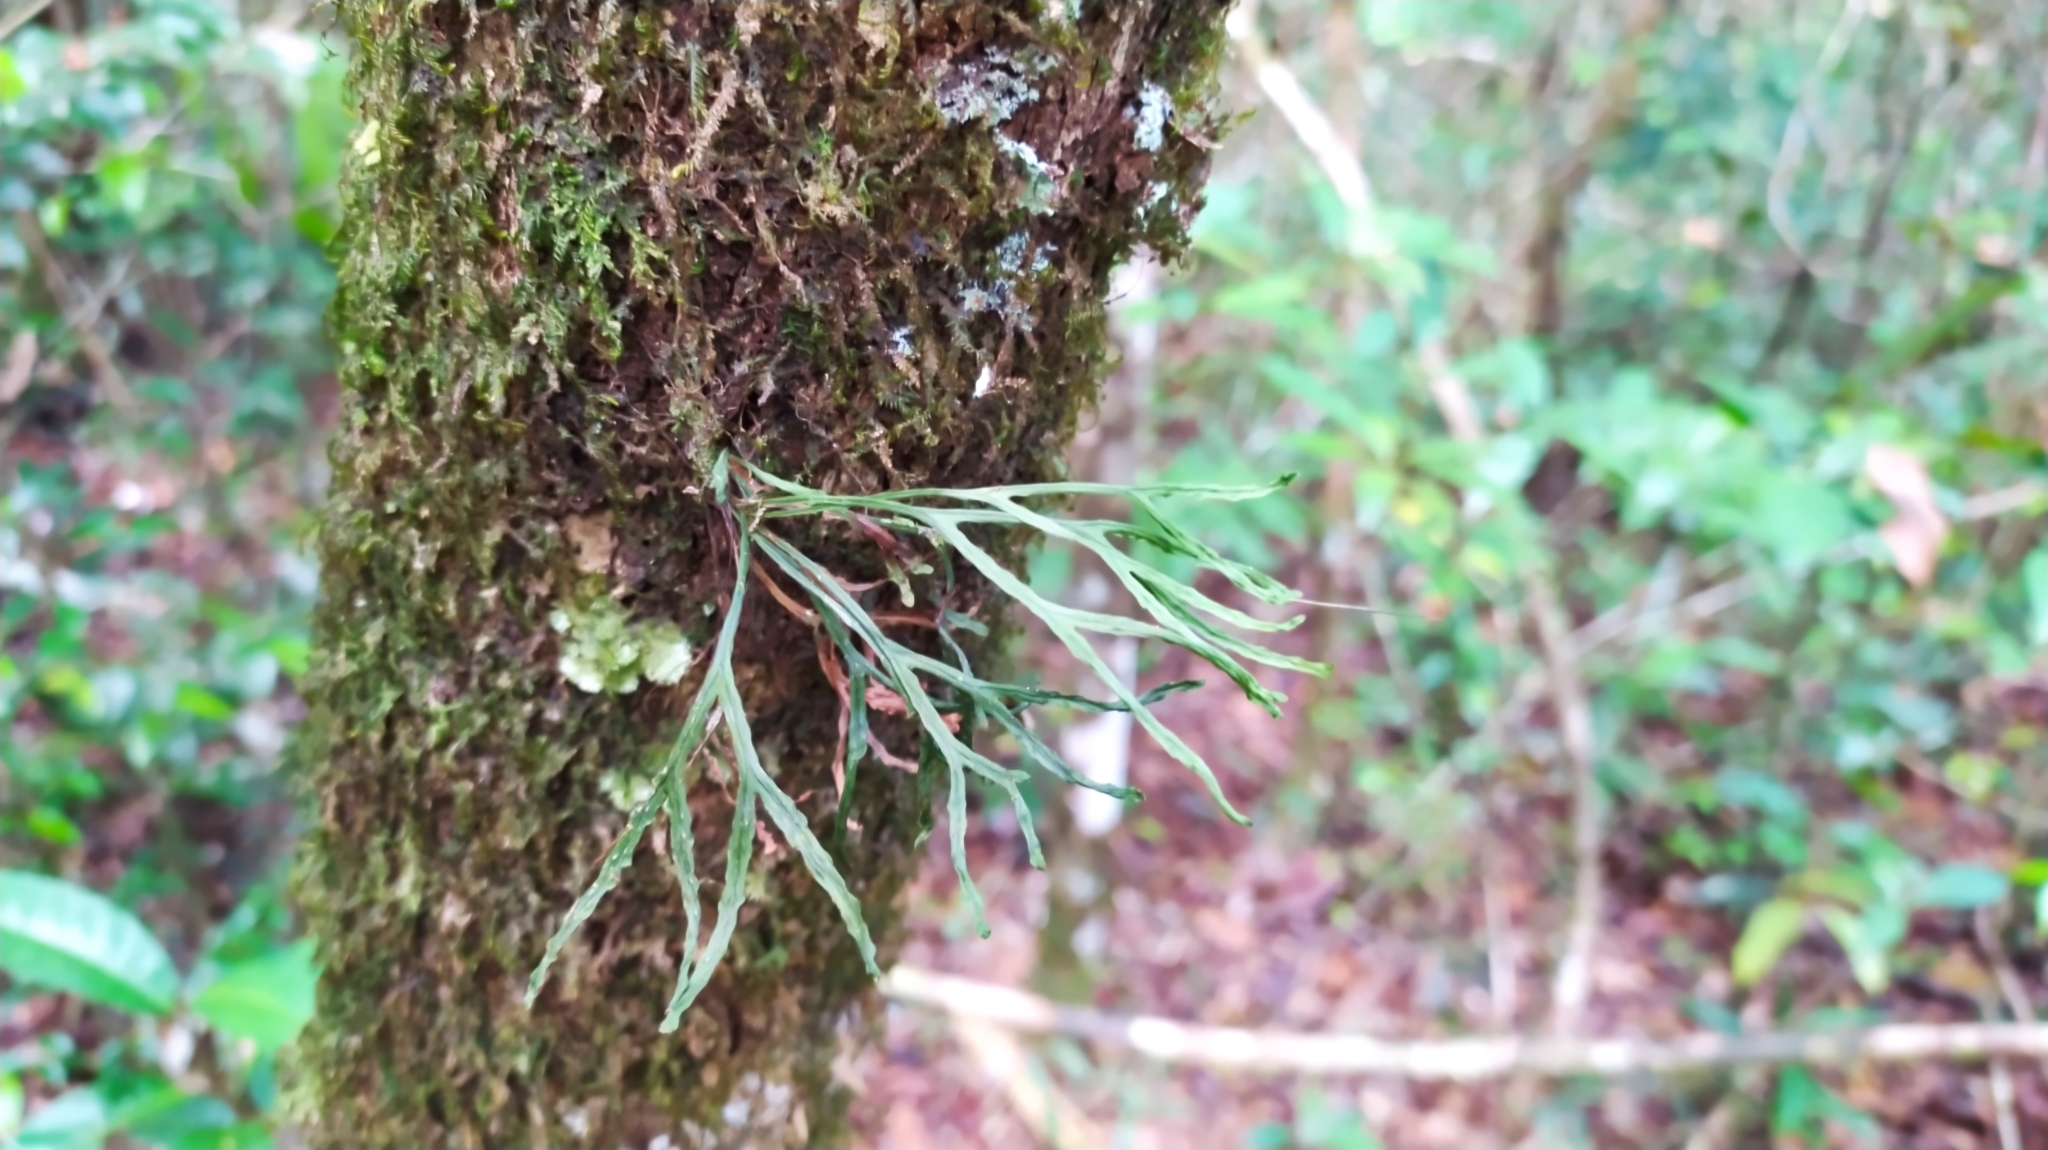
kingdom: Plantae
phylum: Tracheophyta
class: Polypodiopsida
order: Polypodiales
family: Polypodiaceae
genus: Cochlidium
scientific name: Cochlidium furcatum
